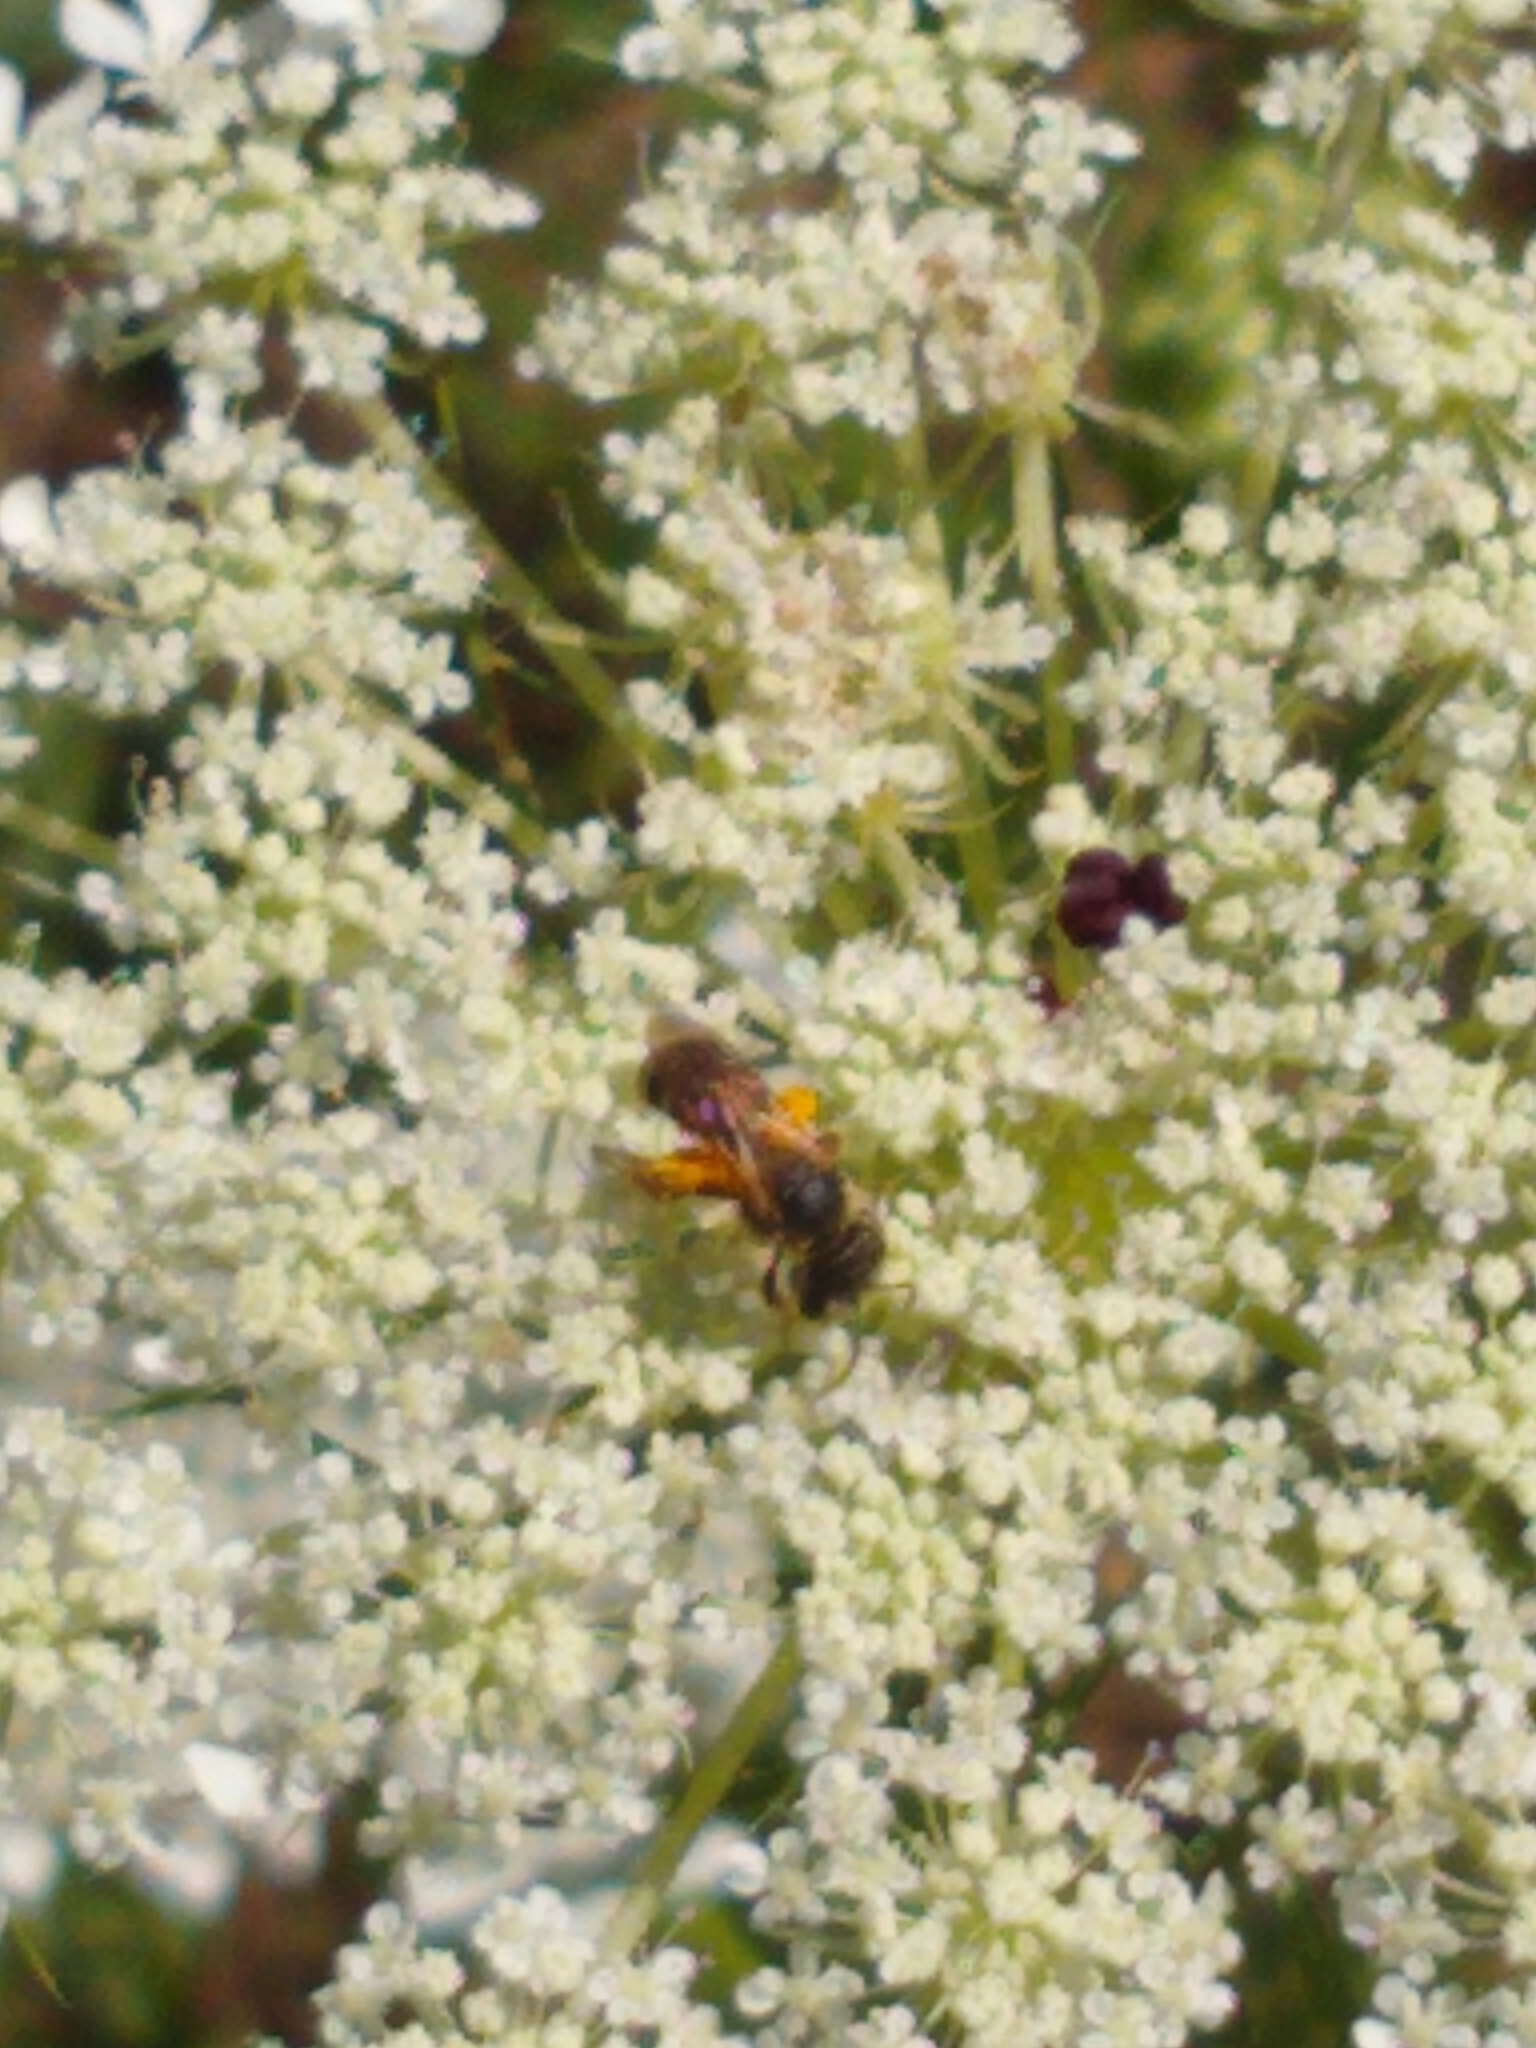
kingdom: Animalia
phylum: Arthropoda
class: Insecta
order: Hymenoptera
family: Halictidae
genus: Halictus
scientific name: Halictus ligatus
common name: Ligated furrow bee
